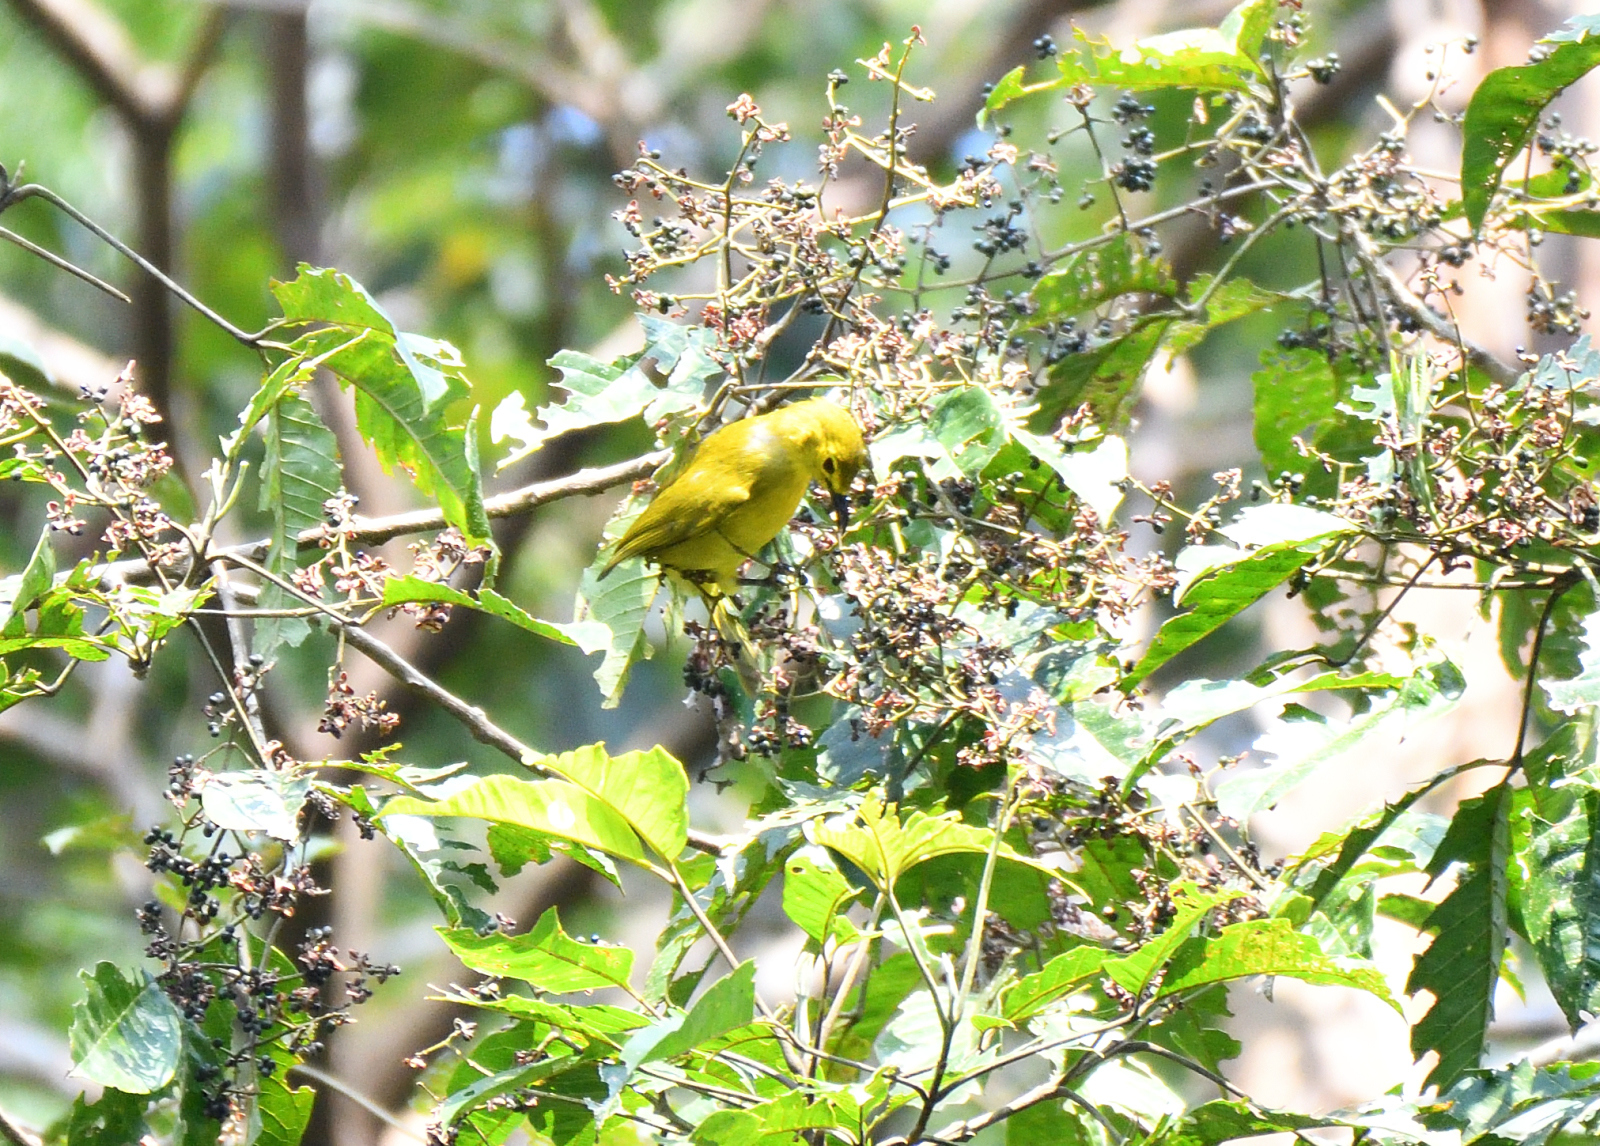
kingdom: Animalia
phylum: Chordata
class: Aves
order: Passeriformes
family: Pycnonotidae
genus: Acritillas
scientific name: Acritillas indica
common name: Yellow-browed bulbul
